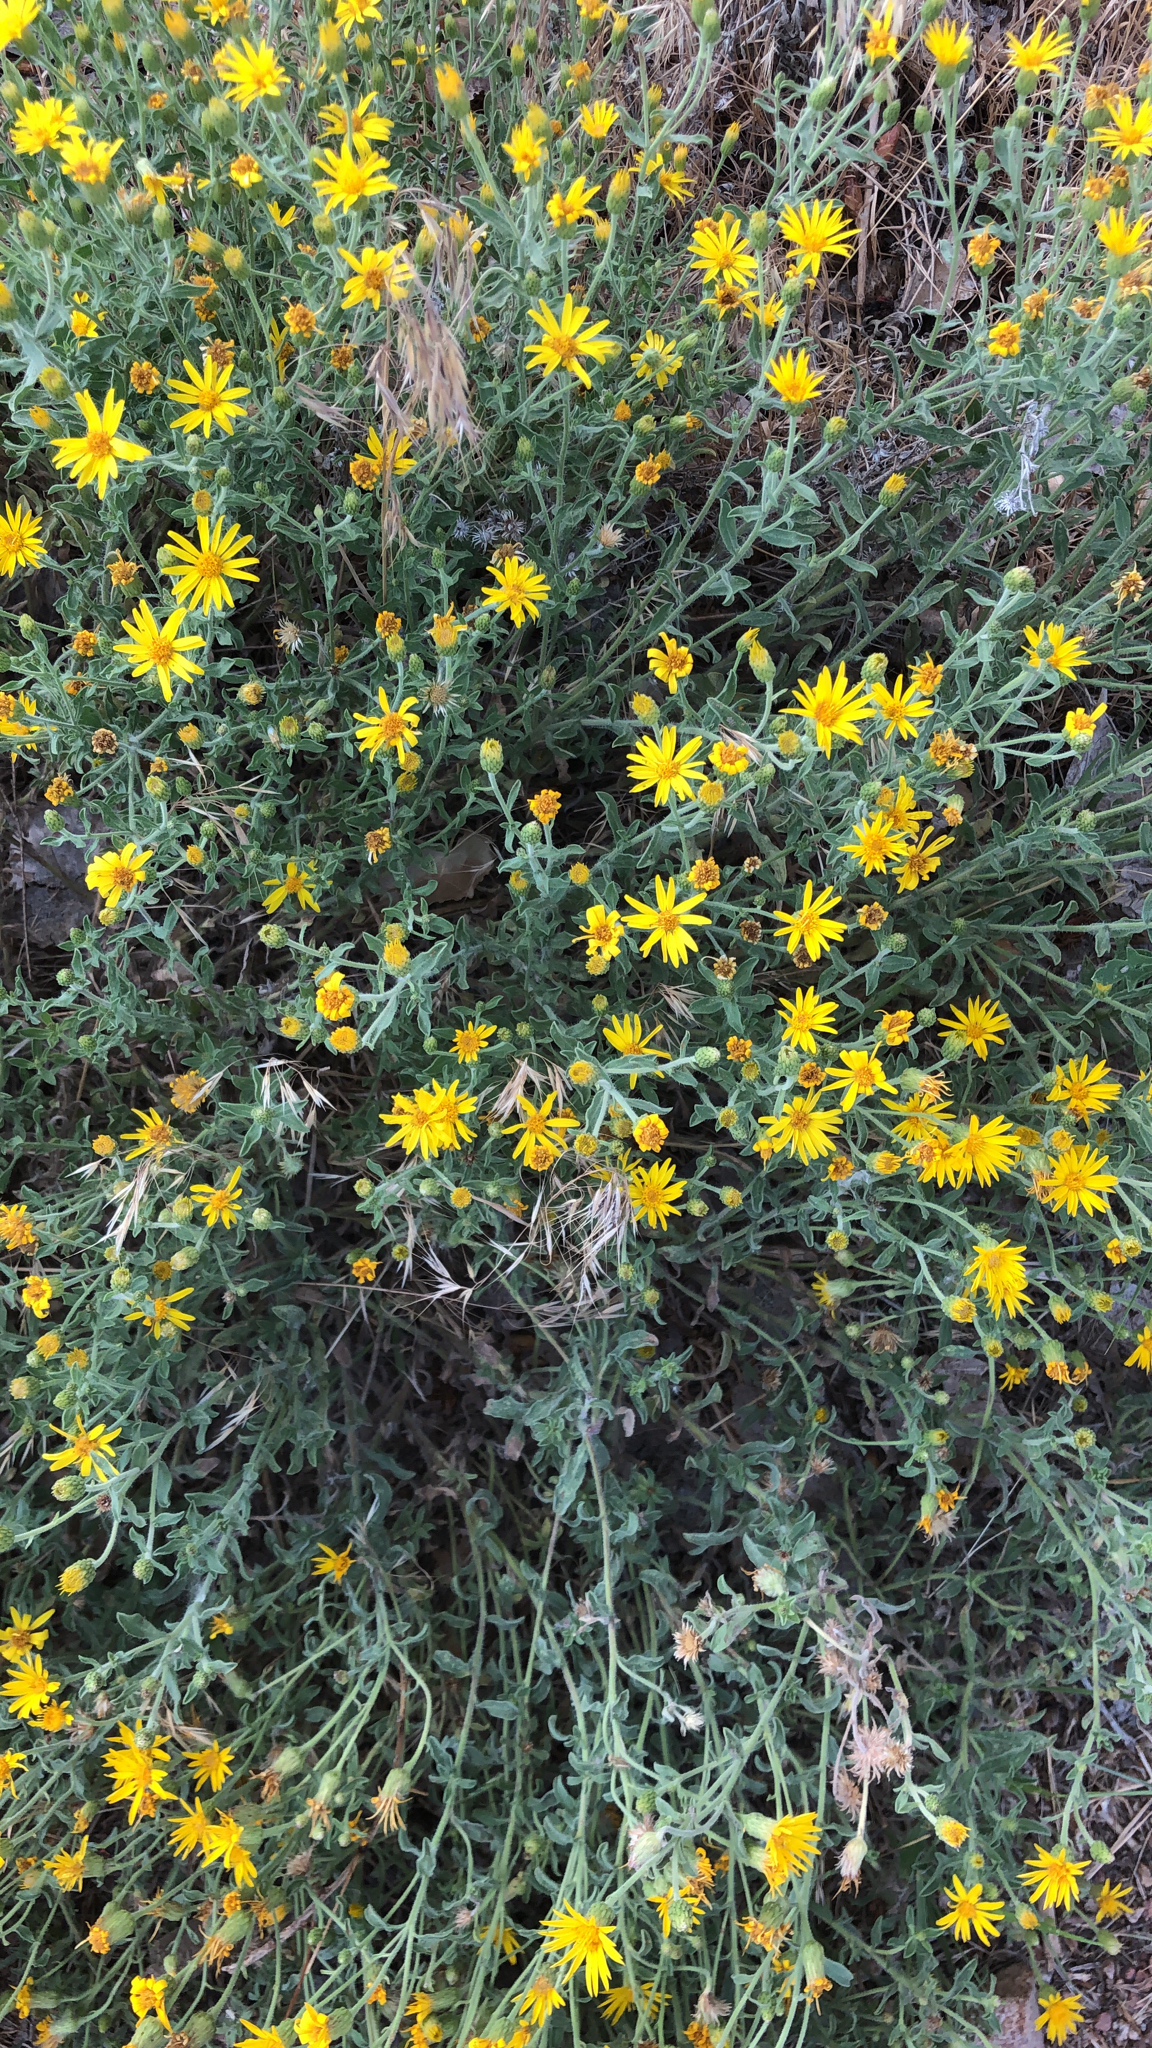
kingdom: Plantae
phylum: Tracheophyta
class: Magnoliopsida
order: Asterales
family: Asteraceae
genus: Heterotheca
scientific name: Heterotheca villosa
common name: Hairy false goldenaster
